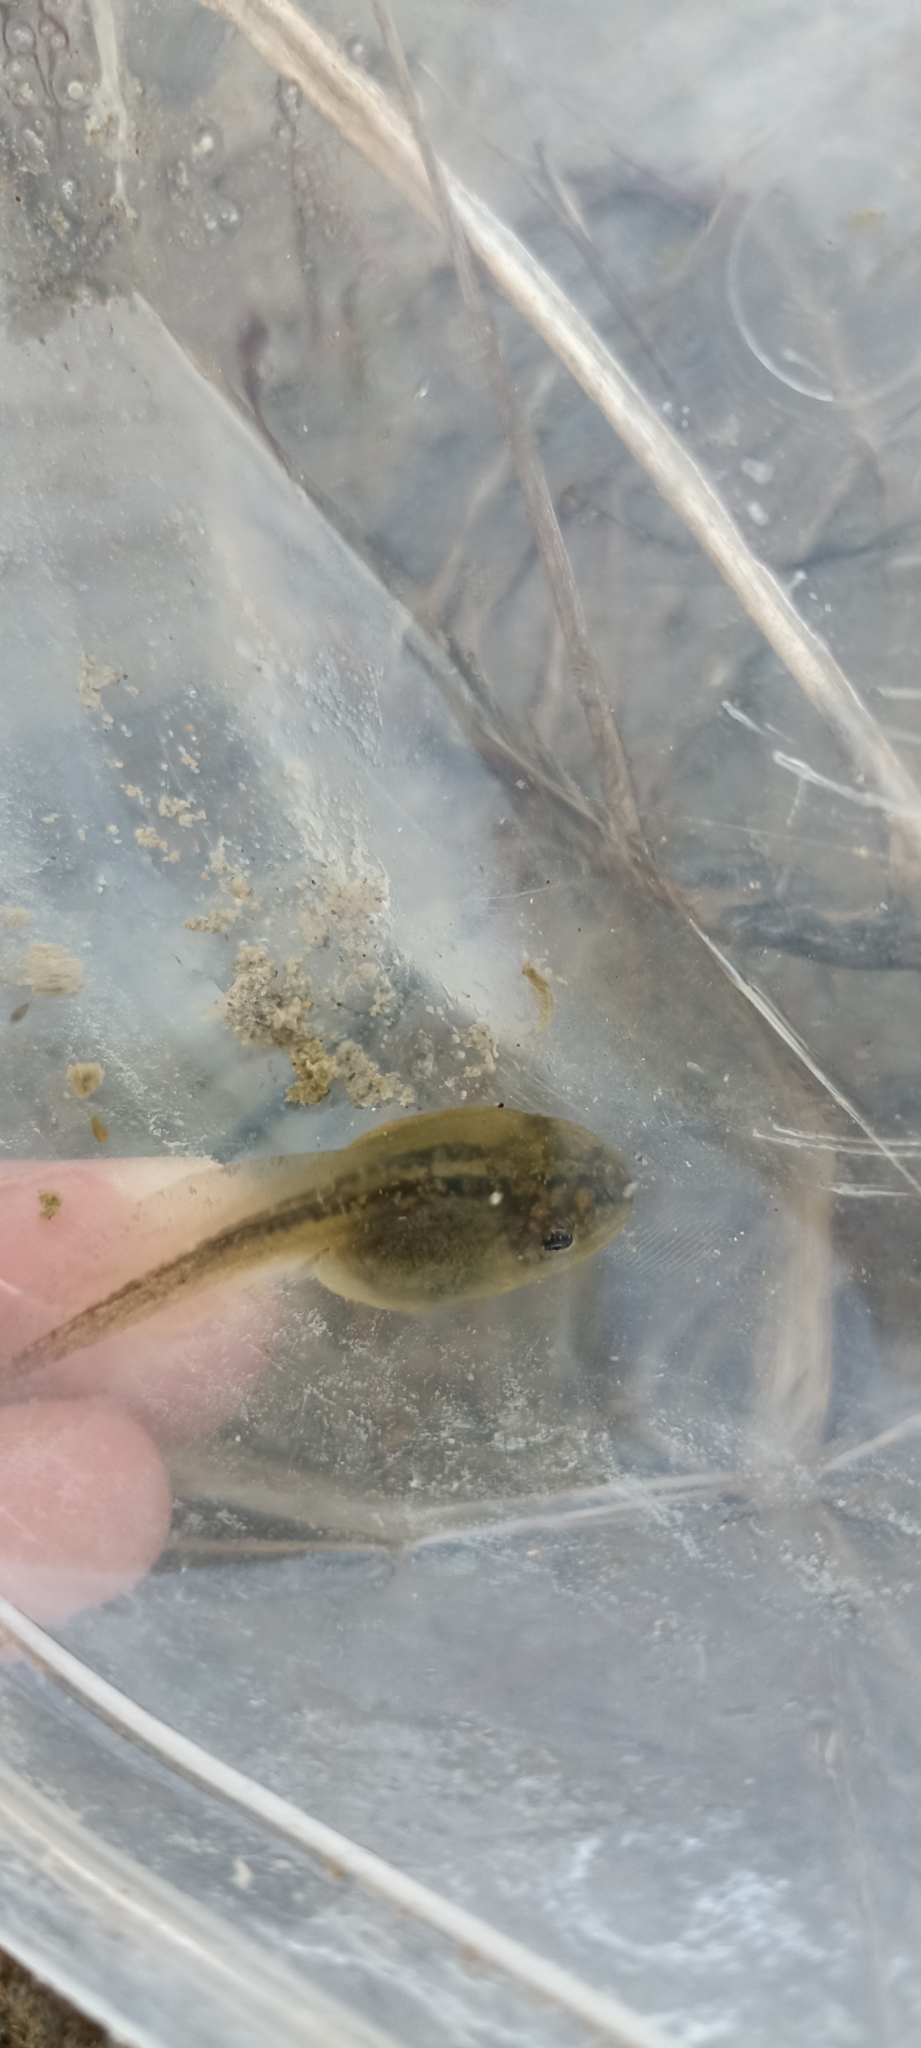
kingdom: Animalia
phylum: Chordata
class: Amphibia
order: Anura
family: Pelobatidae
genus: Pelobates
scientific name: Pelobates cultripes
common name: Western spadefoot
